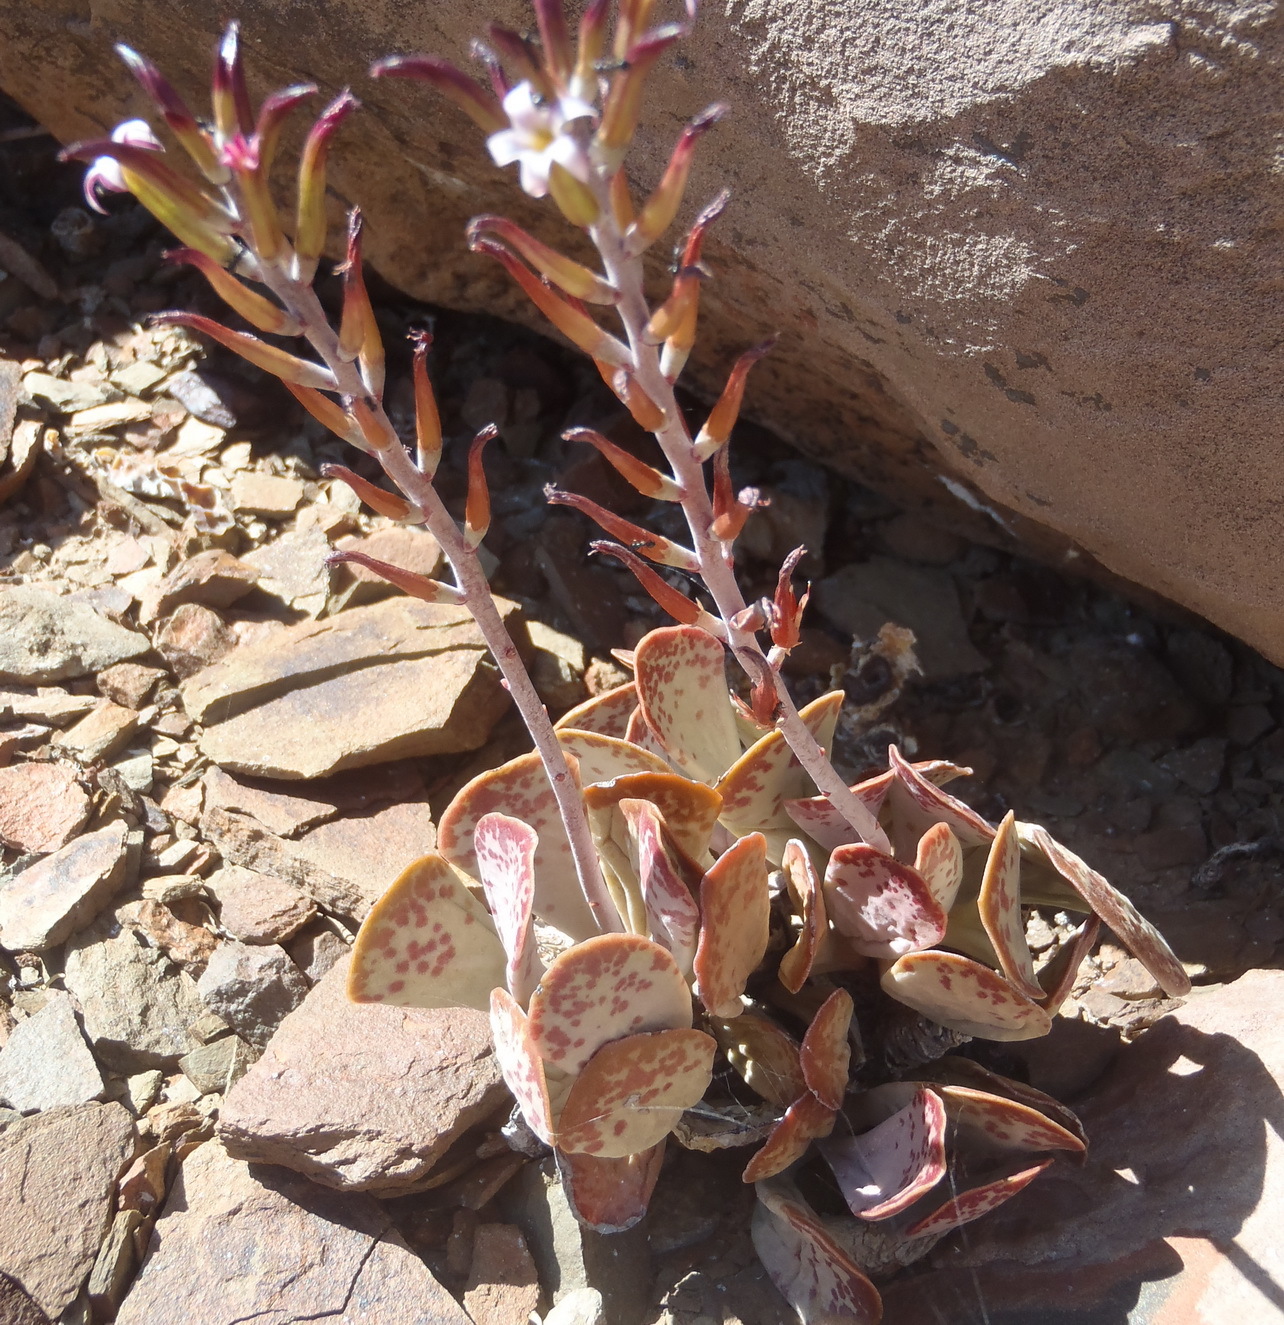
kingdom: Plantae
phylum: Tracheophyta
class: Magnoliopsida
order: Saxifragales
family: Crassulaceae
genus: Adromischus
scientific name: Adromischus triflorus
